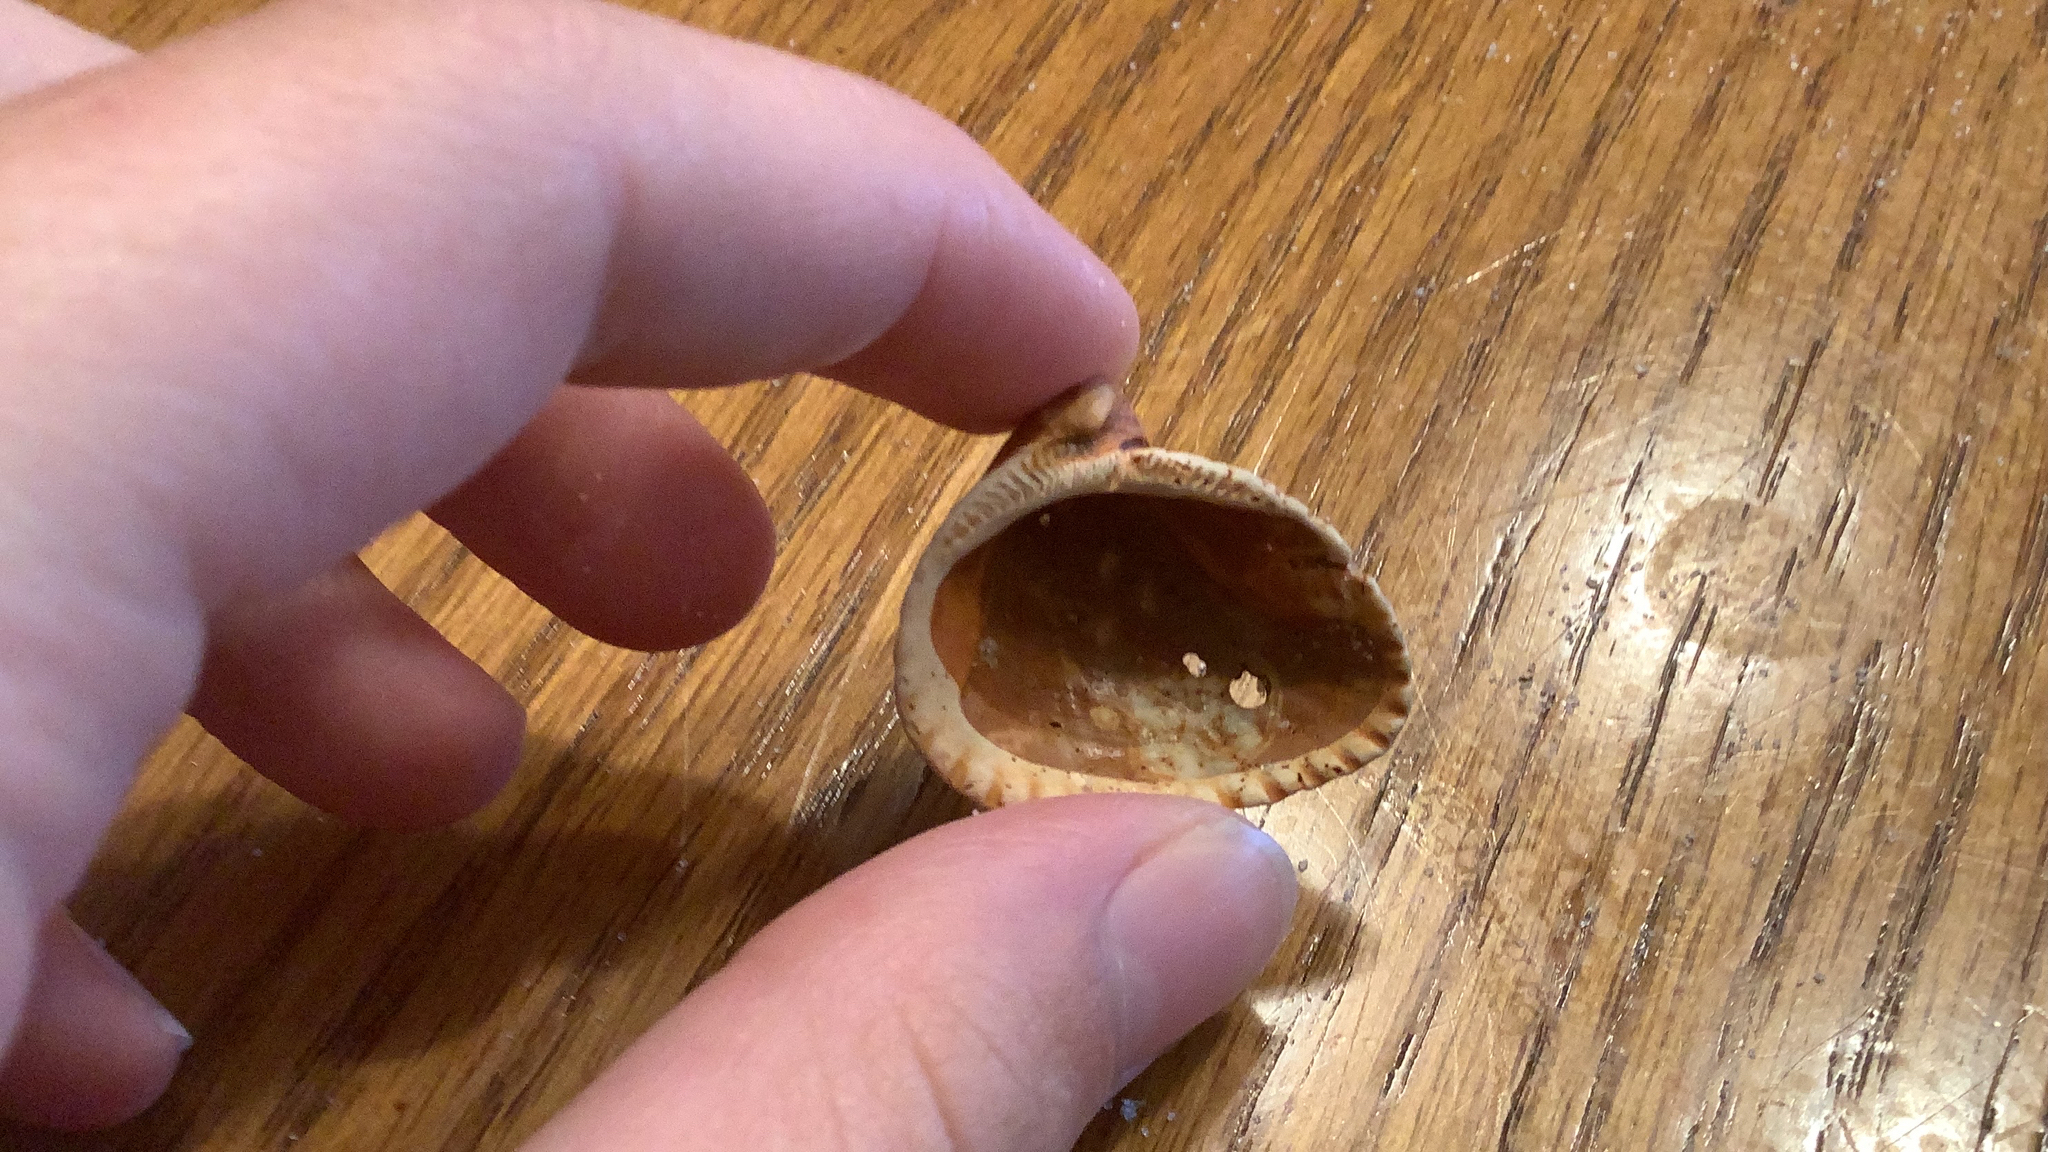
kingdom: Animalia
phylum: Mollusca
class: Bivalvia
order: Arcida
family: Noetiidae
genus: Noetia
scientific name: Noetia ponderosa
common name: Ponderous ark
